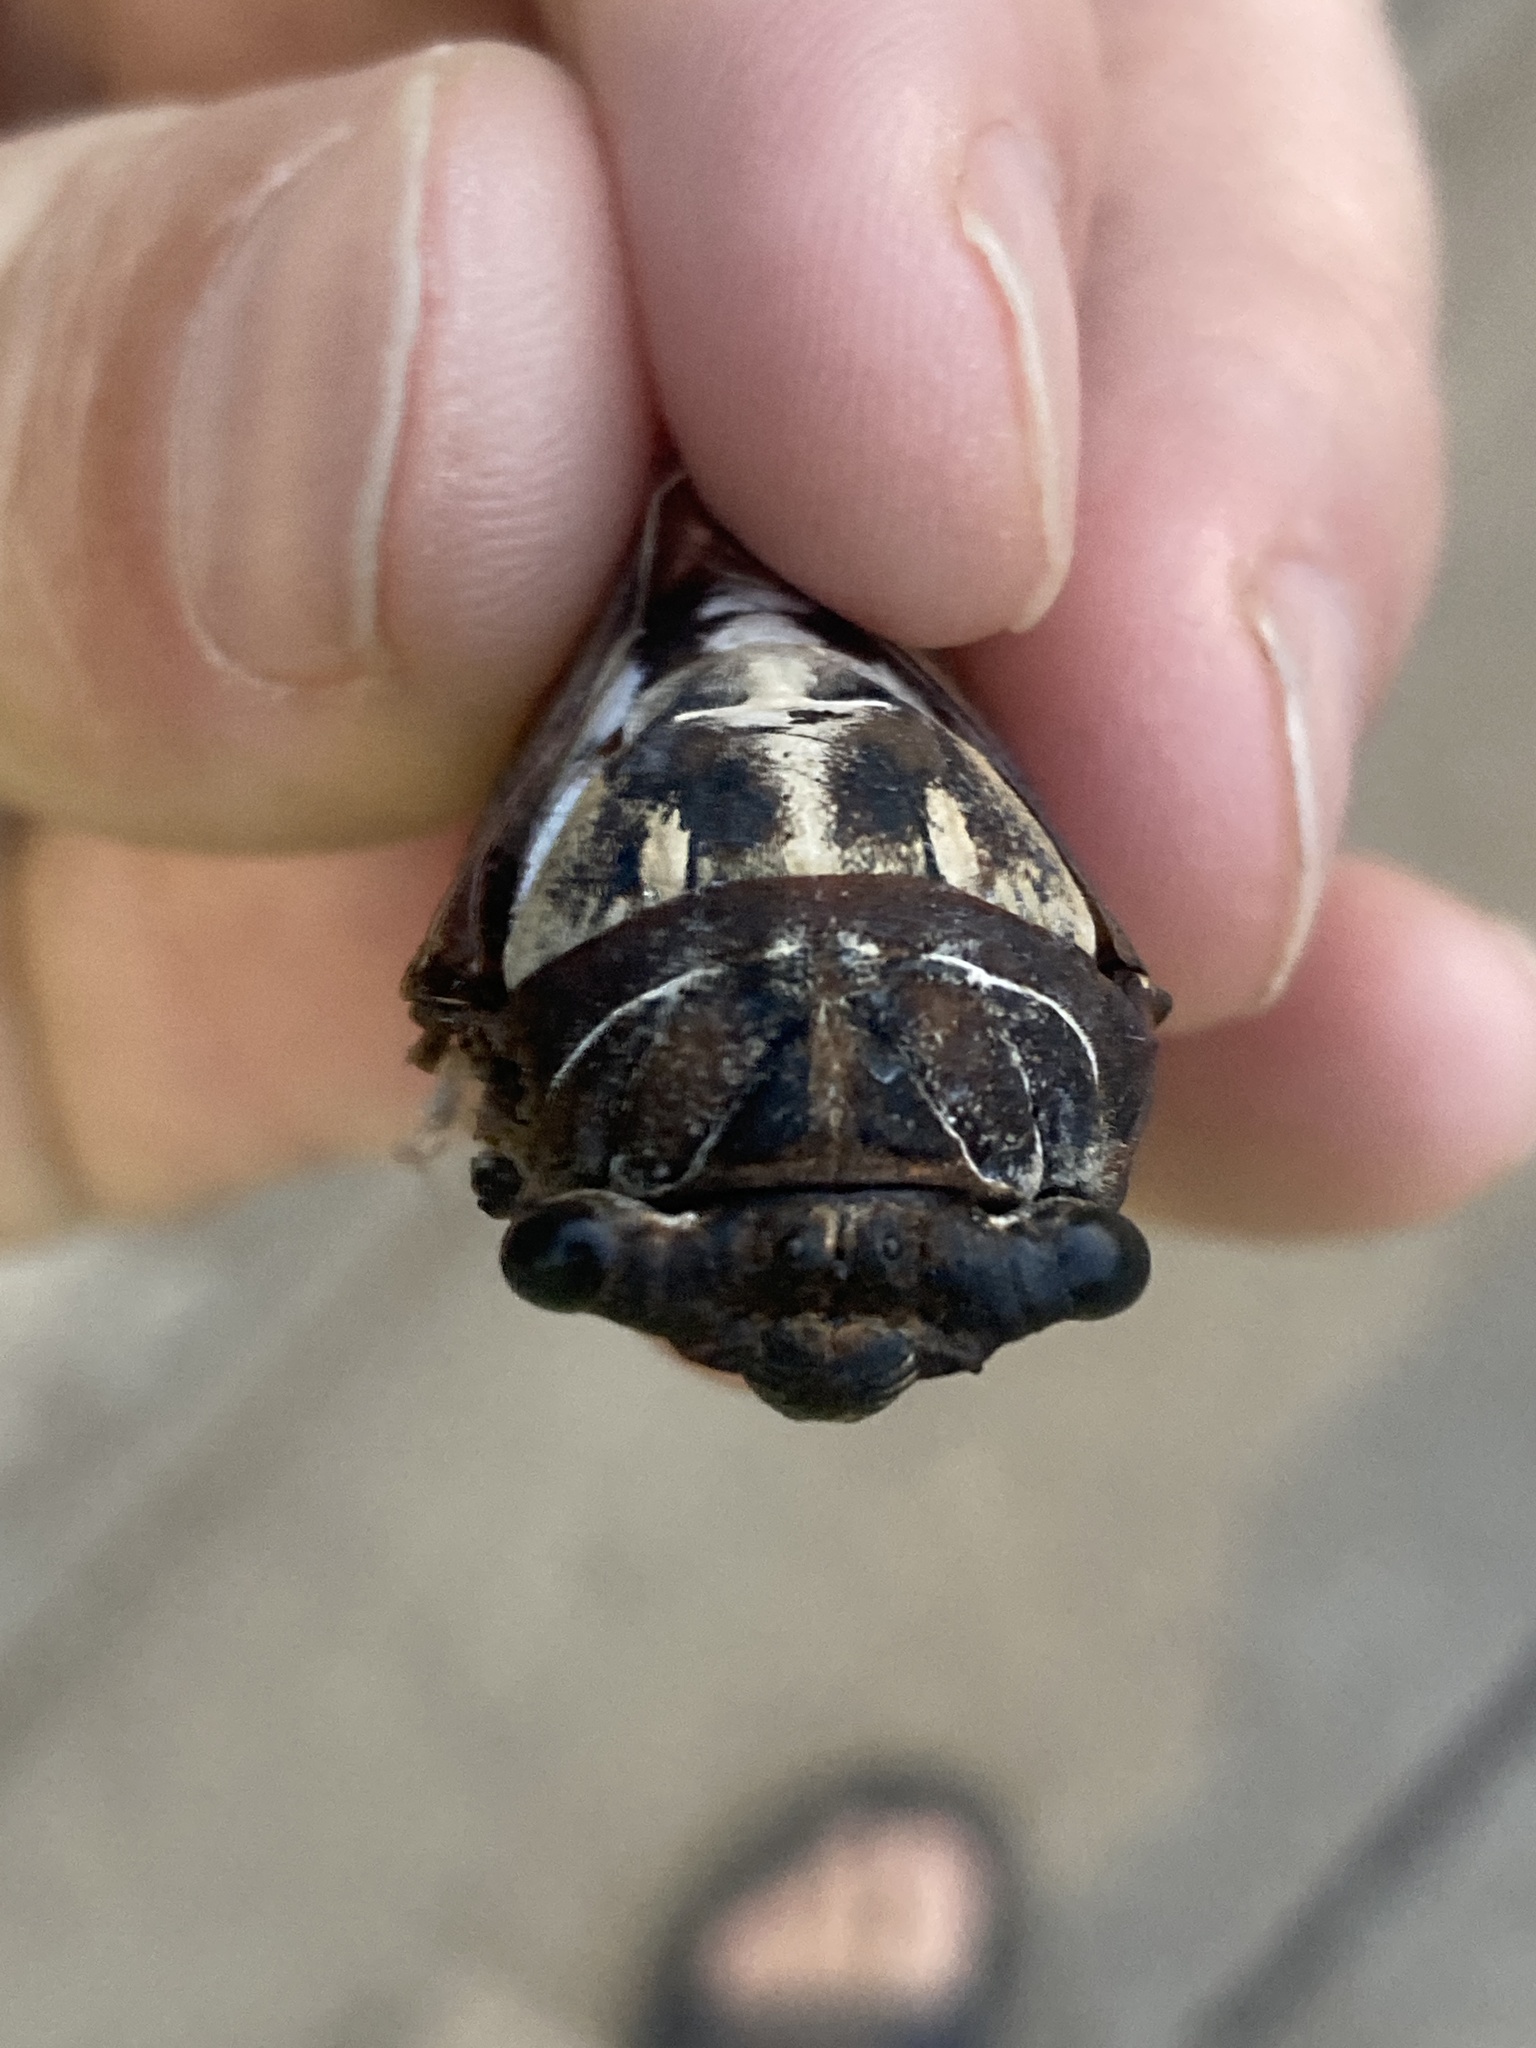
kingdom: Animalia
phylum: Arthropoda
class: Insecta
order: Hemiptera
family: Cicadidae
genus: Megatibicen
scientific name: Megatibicen dealbatus
